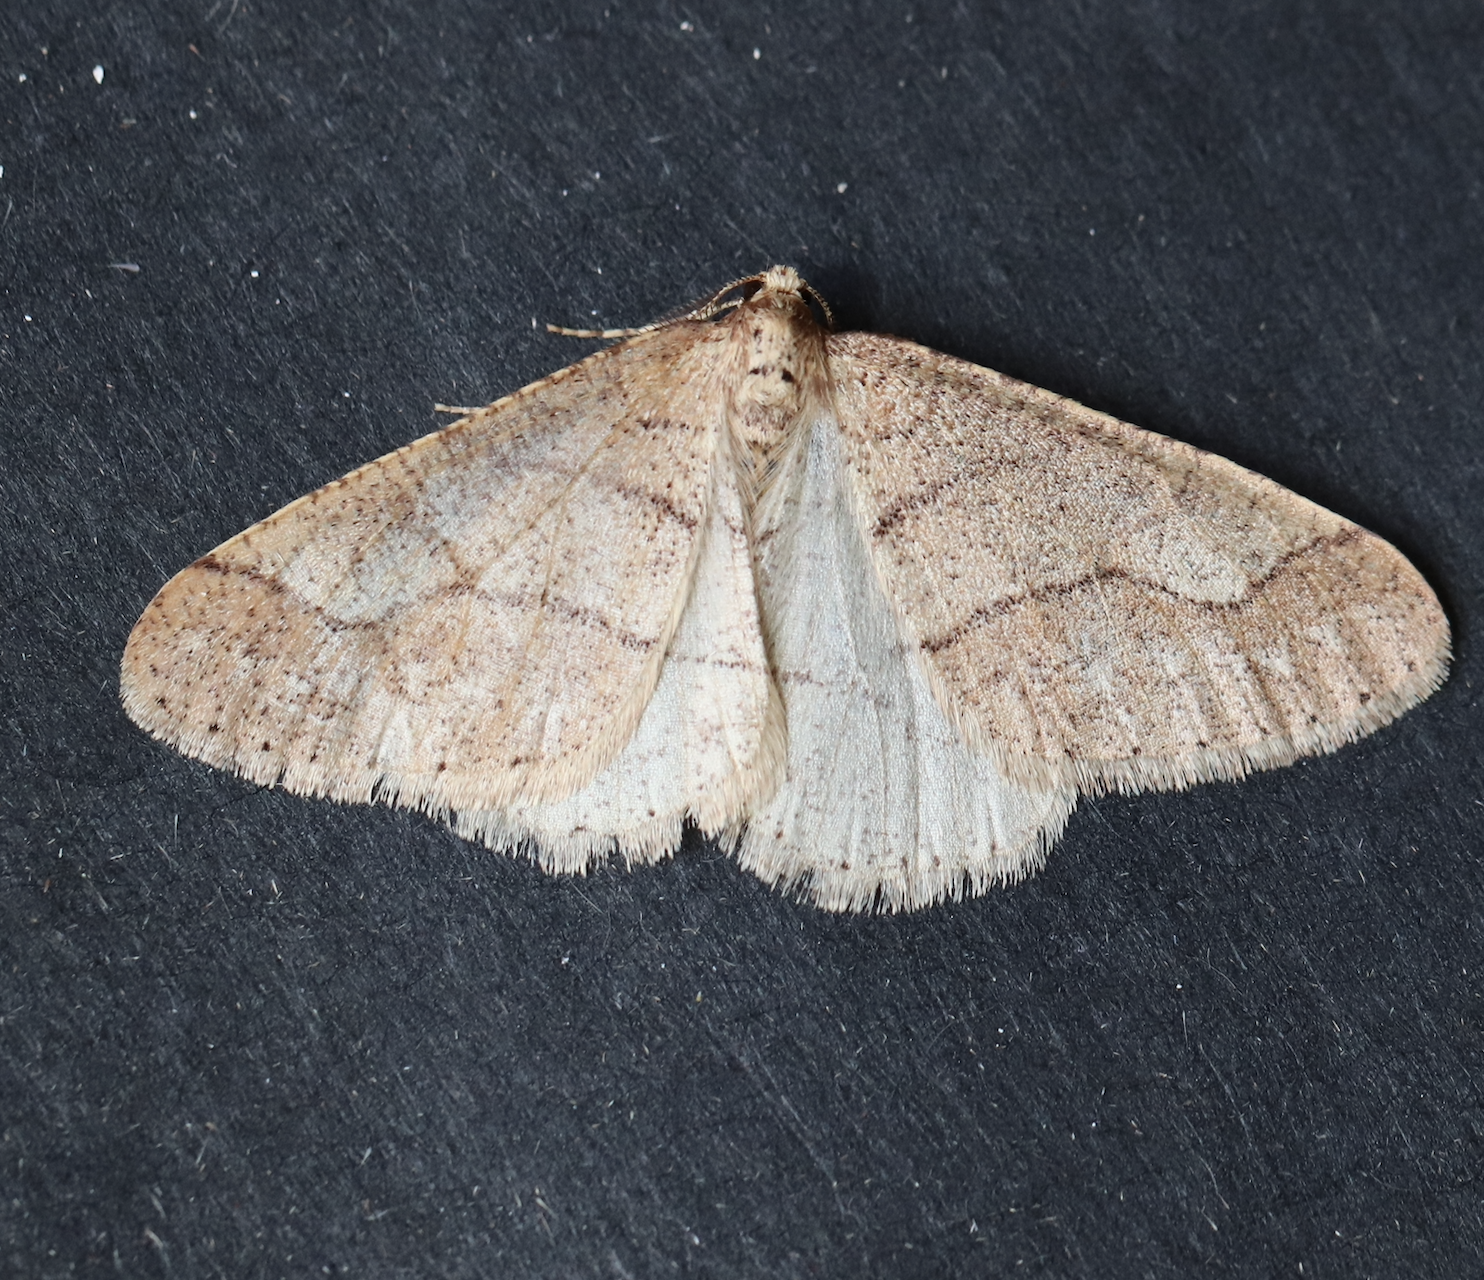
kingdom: Animalia
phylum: Arthropoda
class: Insecta
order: Lepidoptera
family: Geometridae
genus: Agriopis
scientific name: Agriopis marginaria
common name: Dotted border
